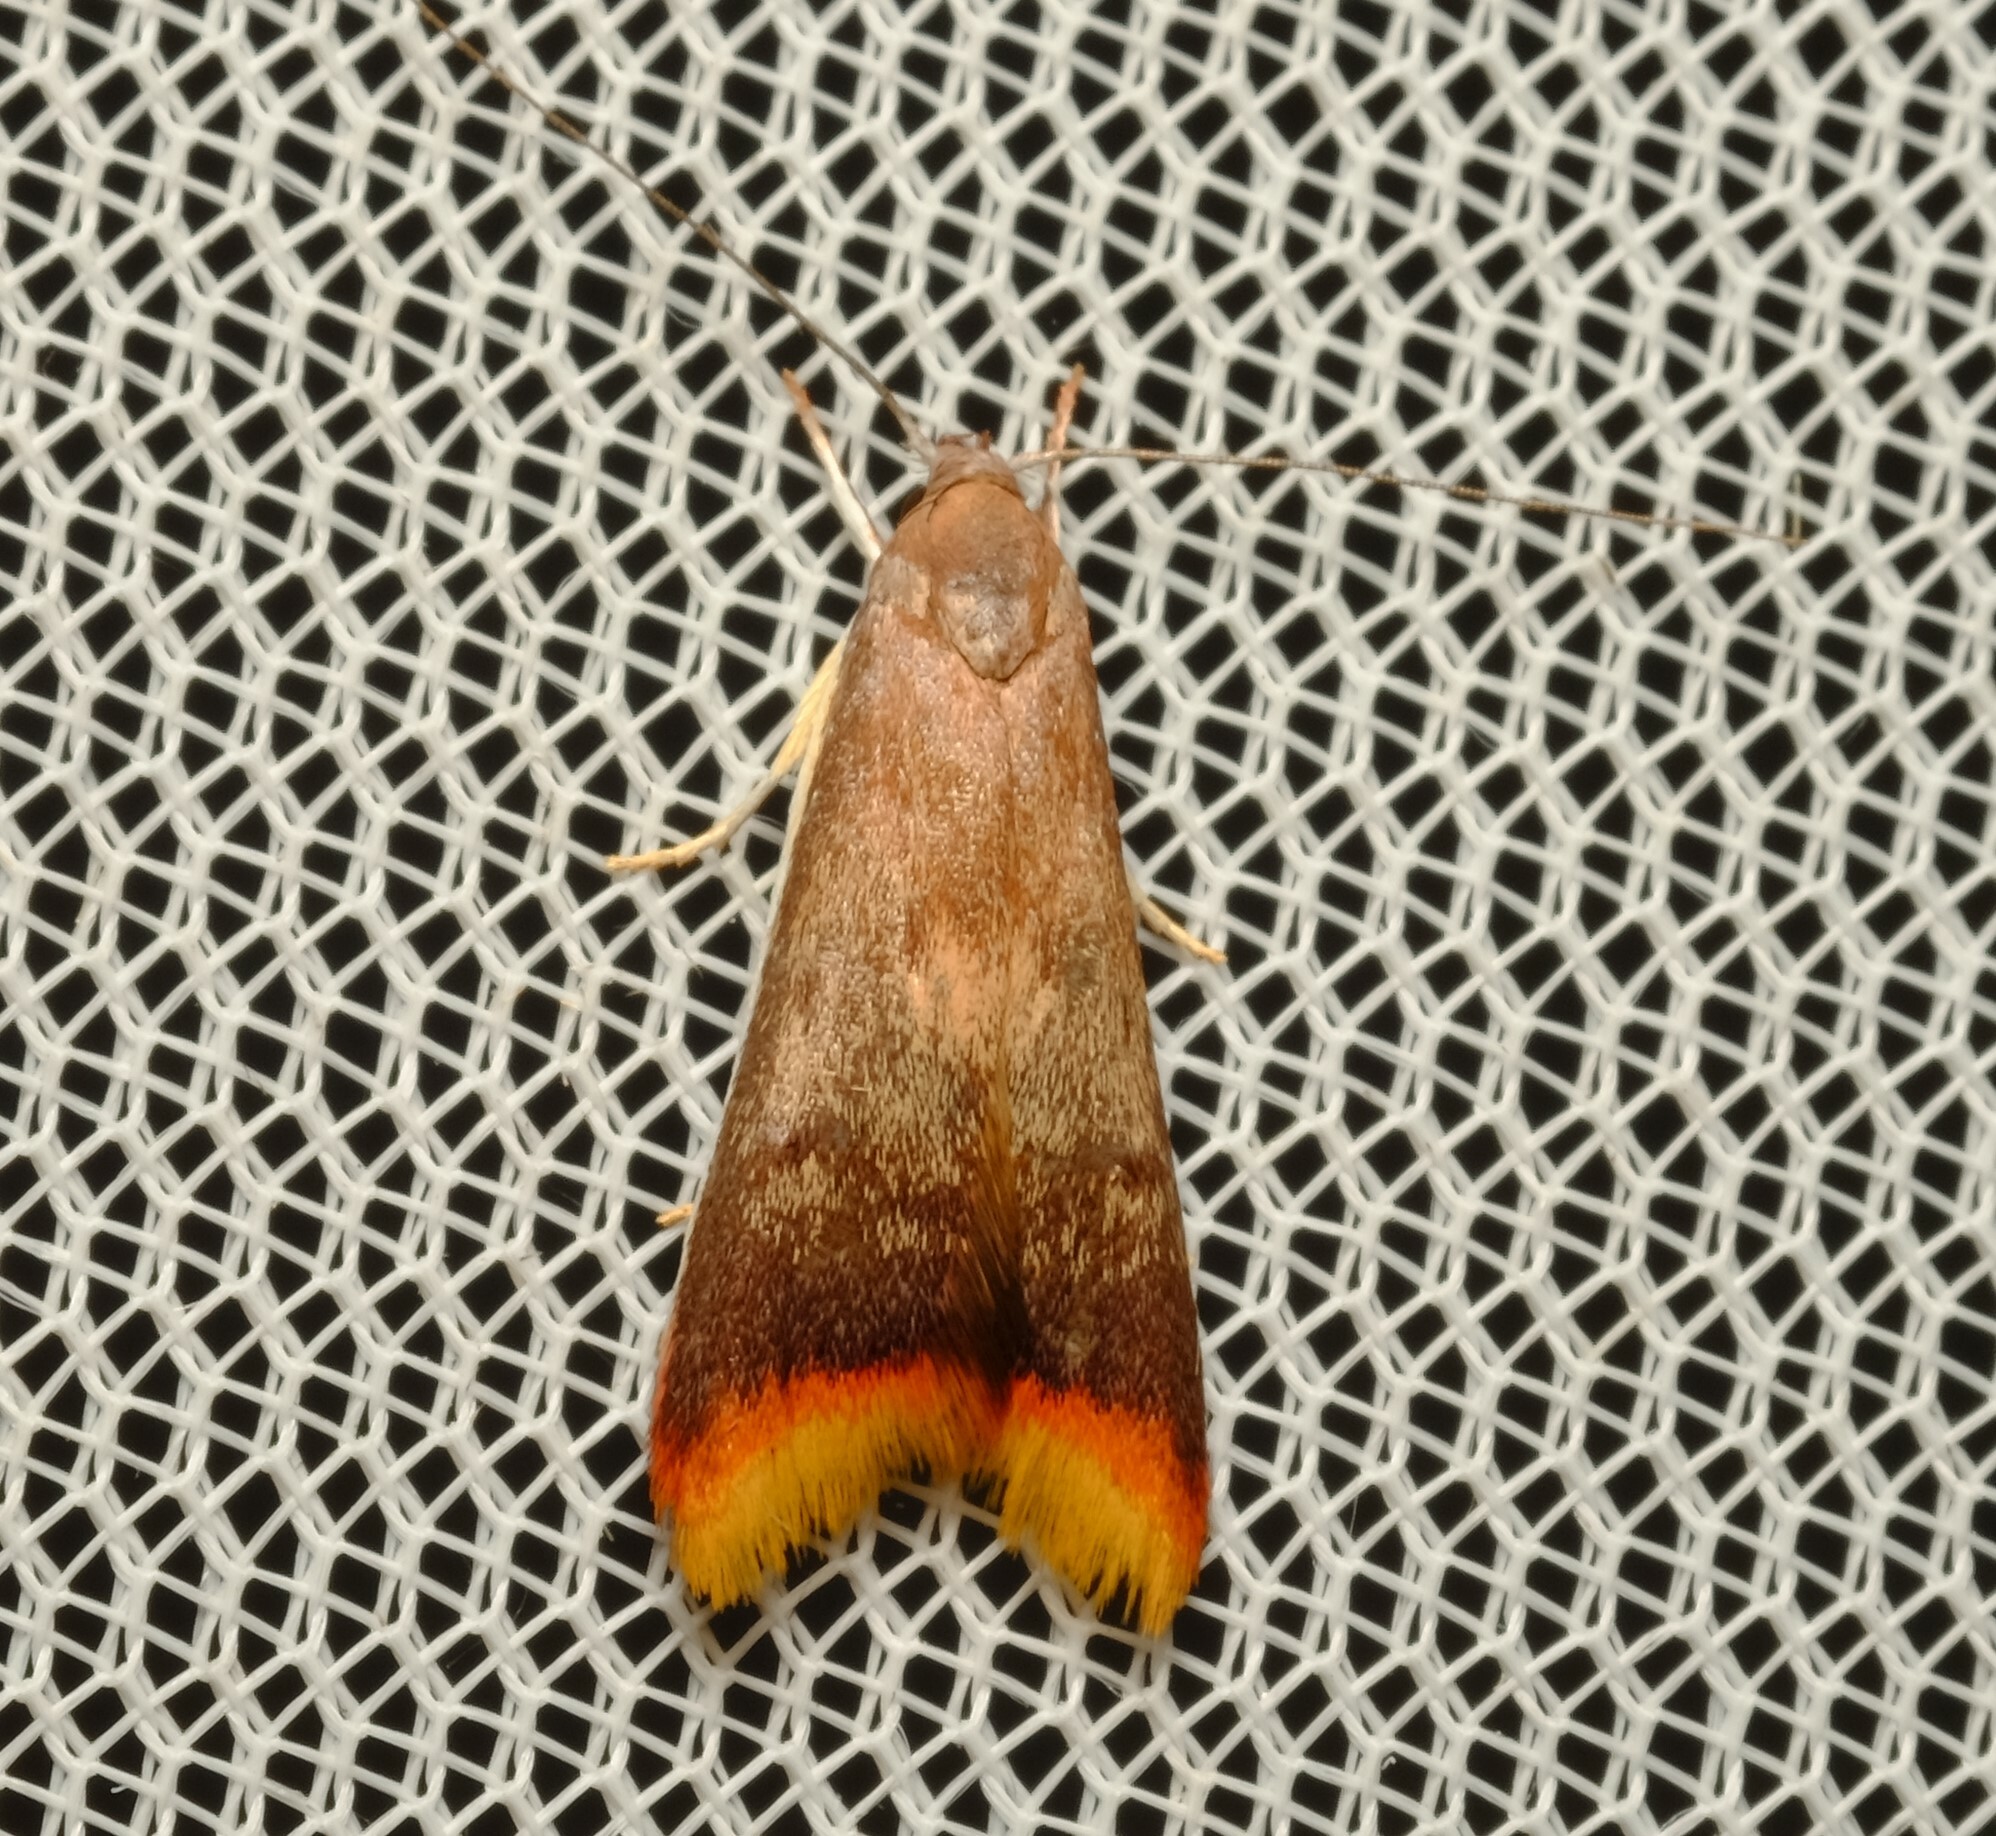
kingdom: Animalia
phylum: Arthropoda
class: Insecta
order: Lepidoptera
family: Oecophoridae
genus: Hemibela
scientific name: Hemibela callista
